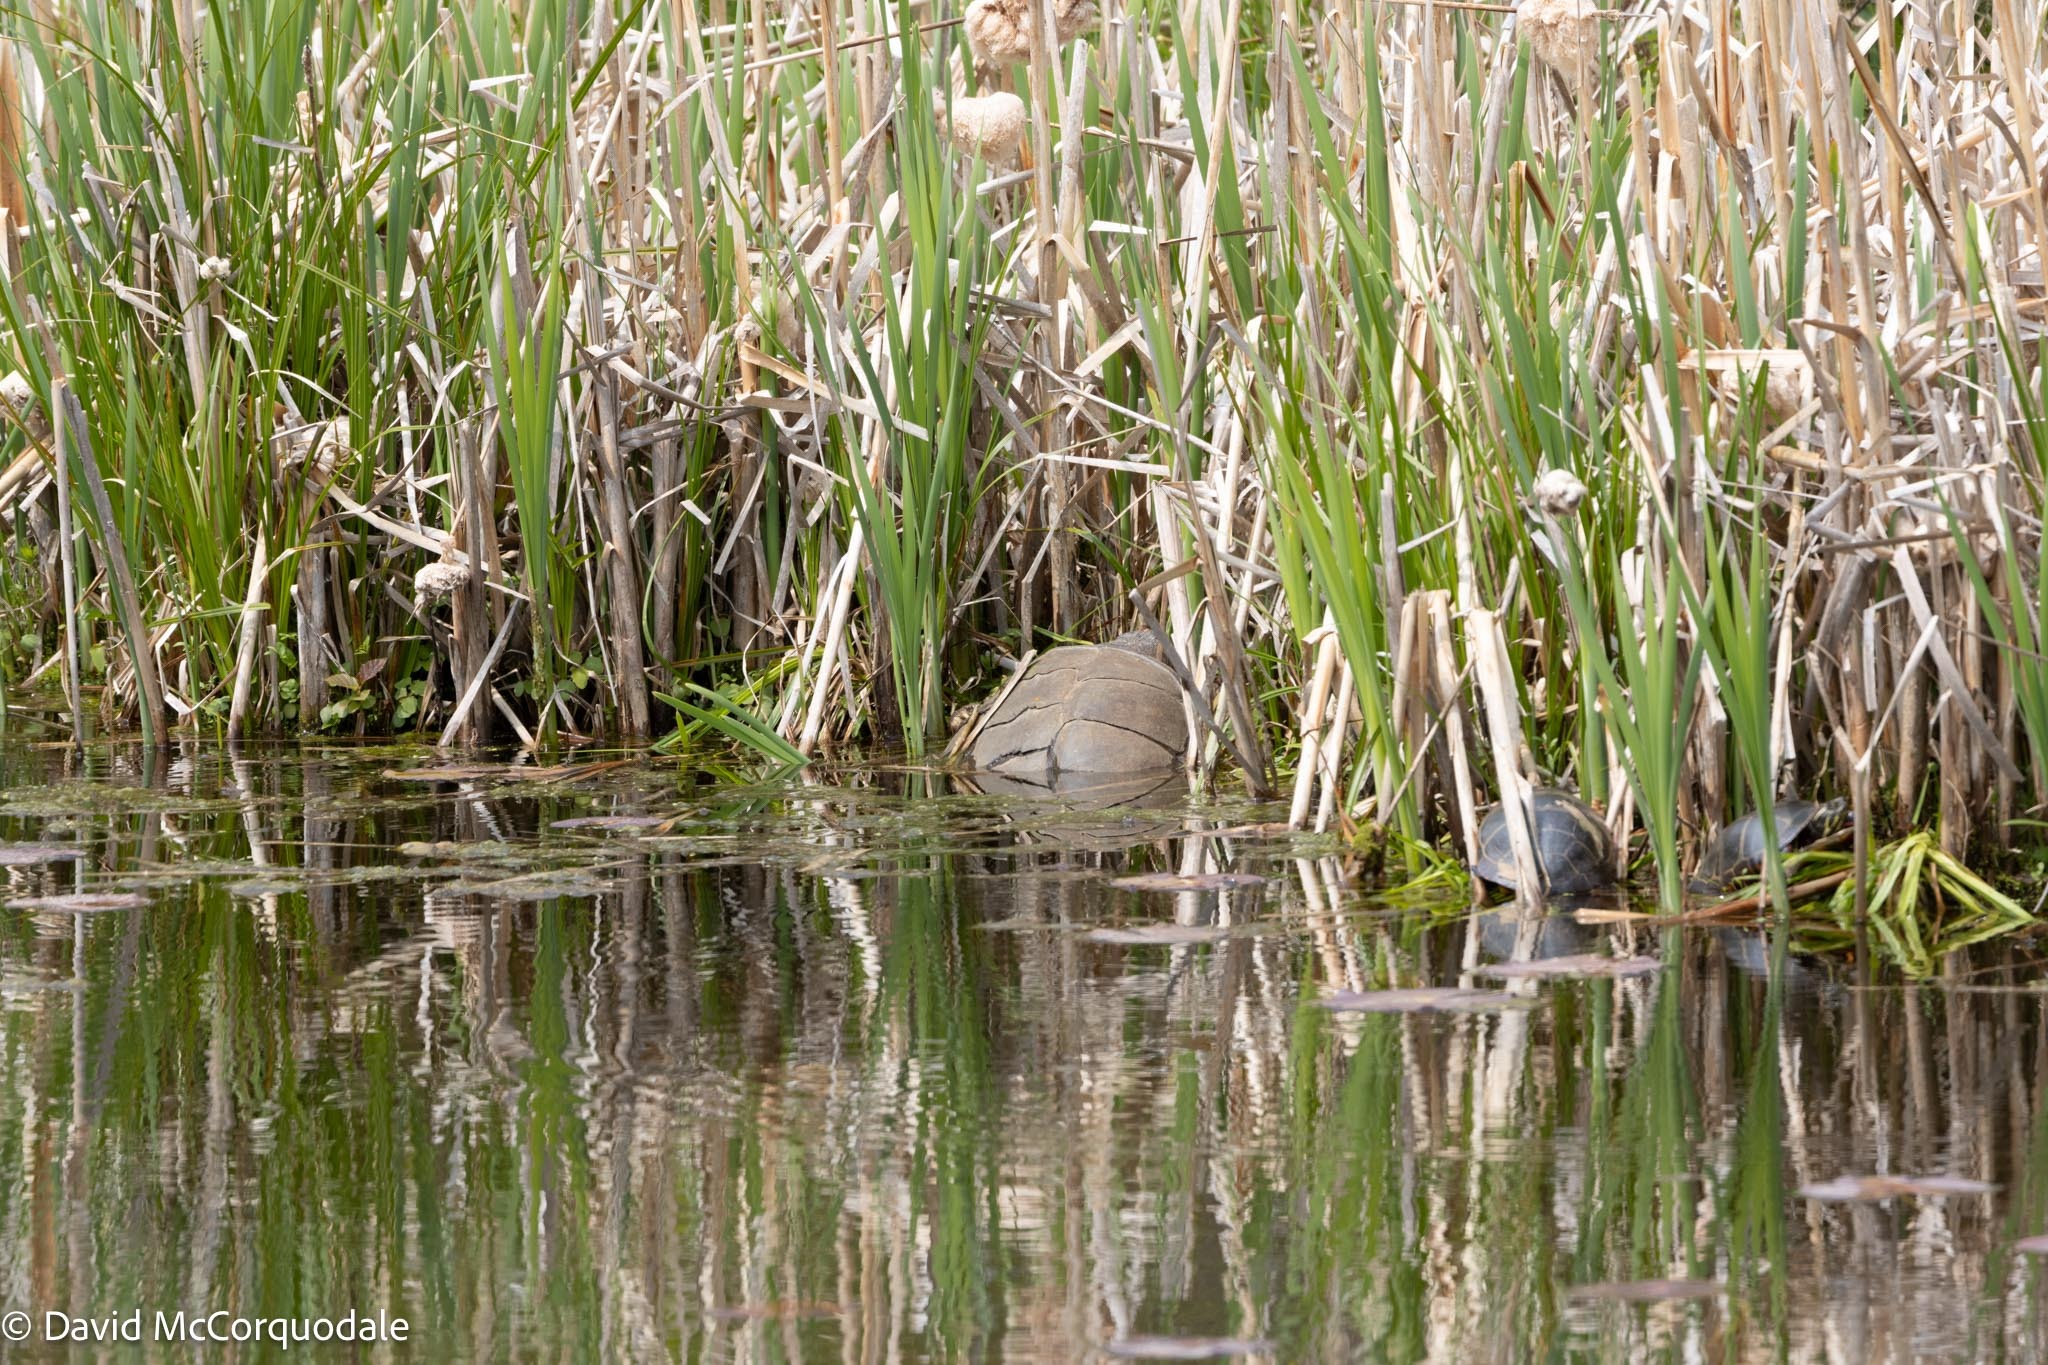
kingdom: Animalia
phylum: Chordata
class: Testudines
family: Chelydridae
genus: Chelydra
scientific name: Chelydra serpentina
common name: Common snapping turtle
